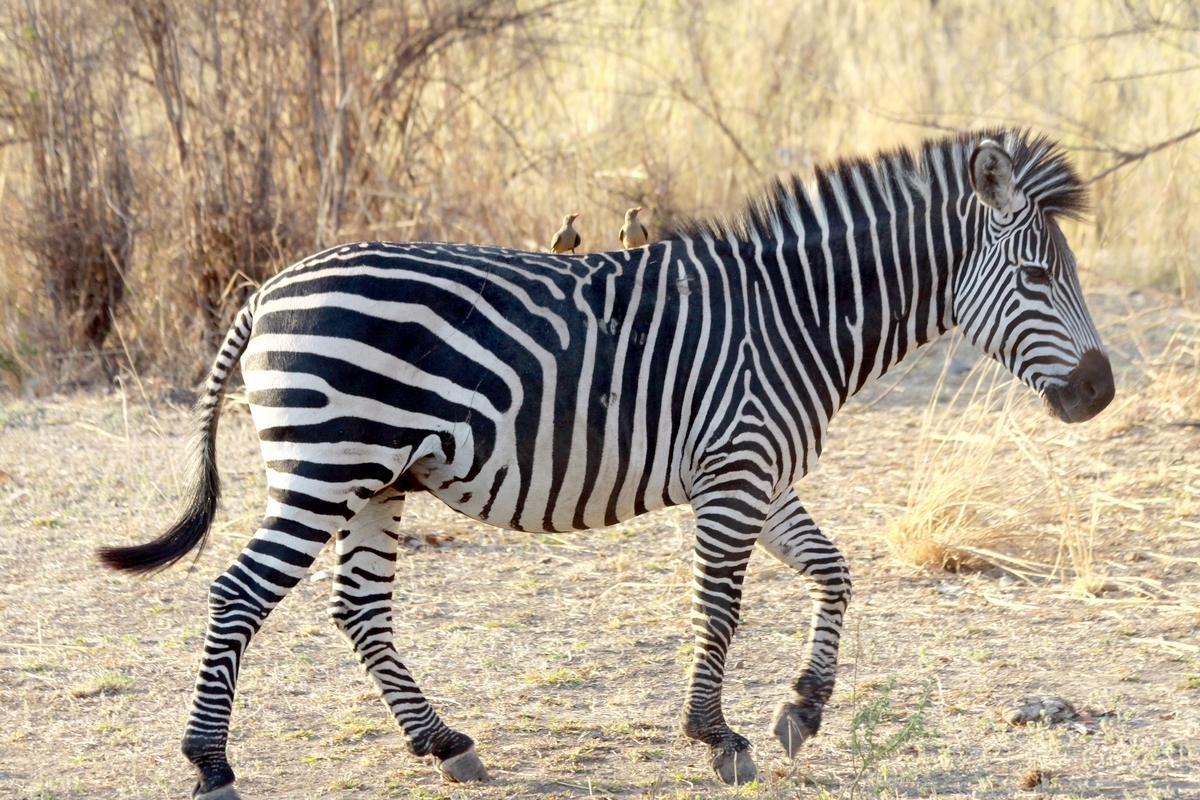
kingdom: Animalia
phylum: Chordata
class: Mammalia
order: Perissodactyla
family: Equidae
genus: Equus
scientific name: Equus quagga
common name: Plains zebra
